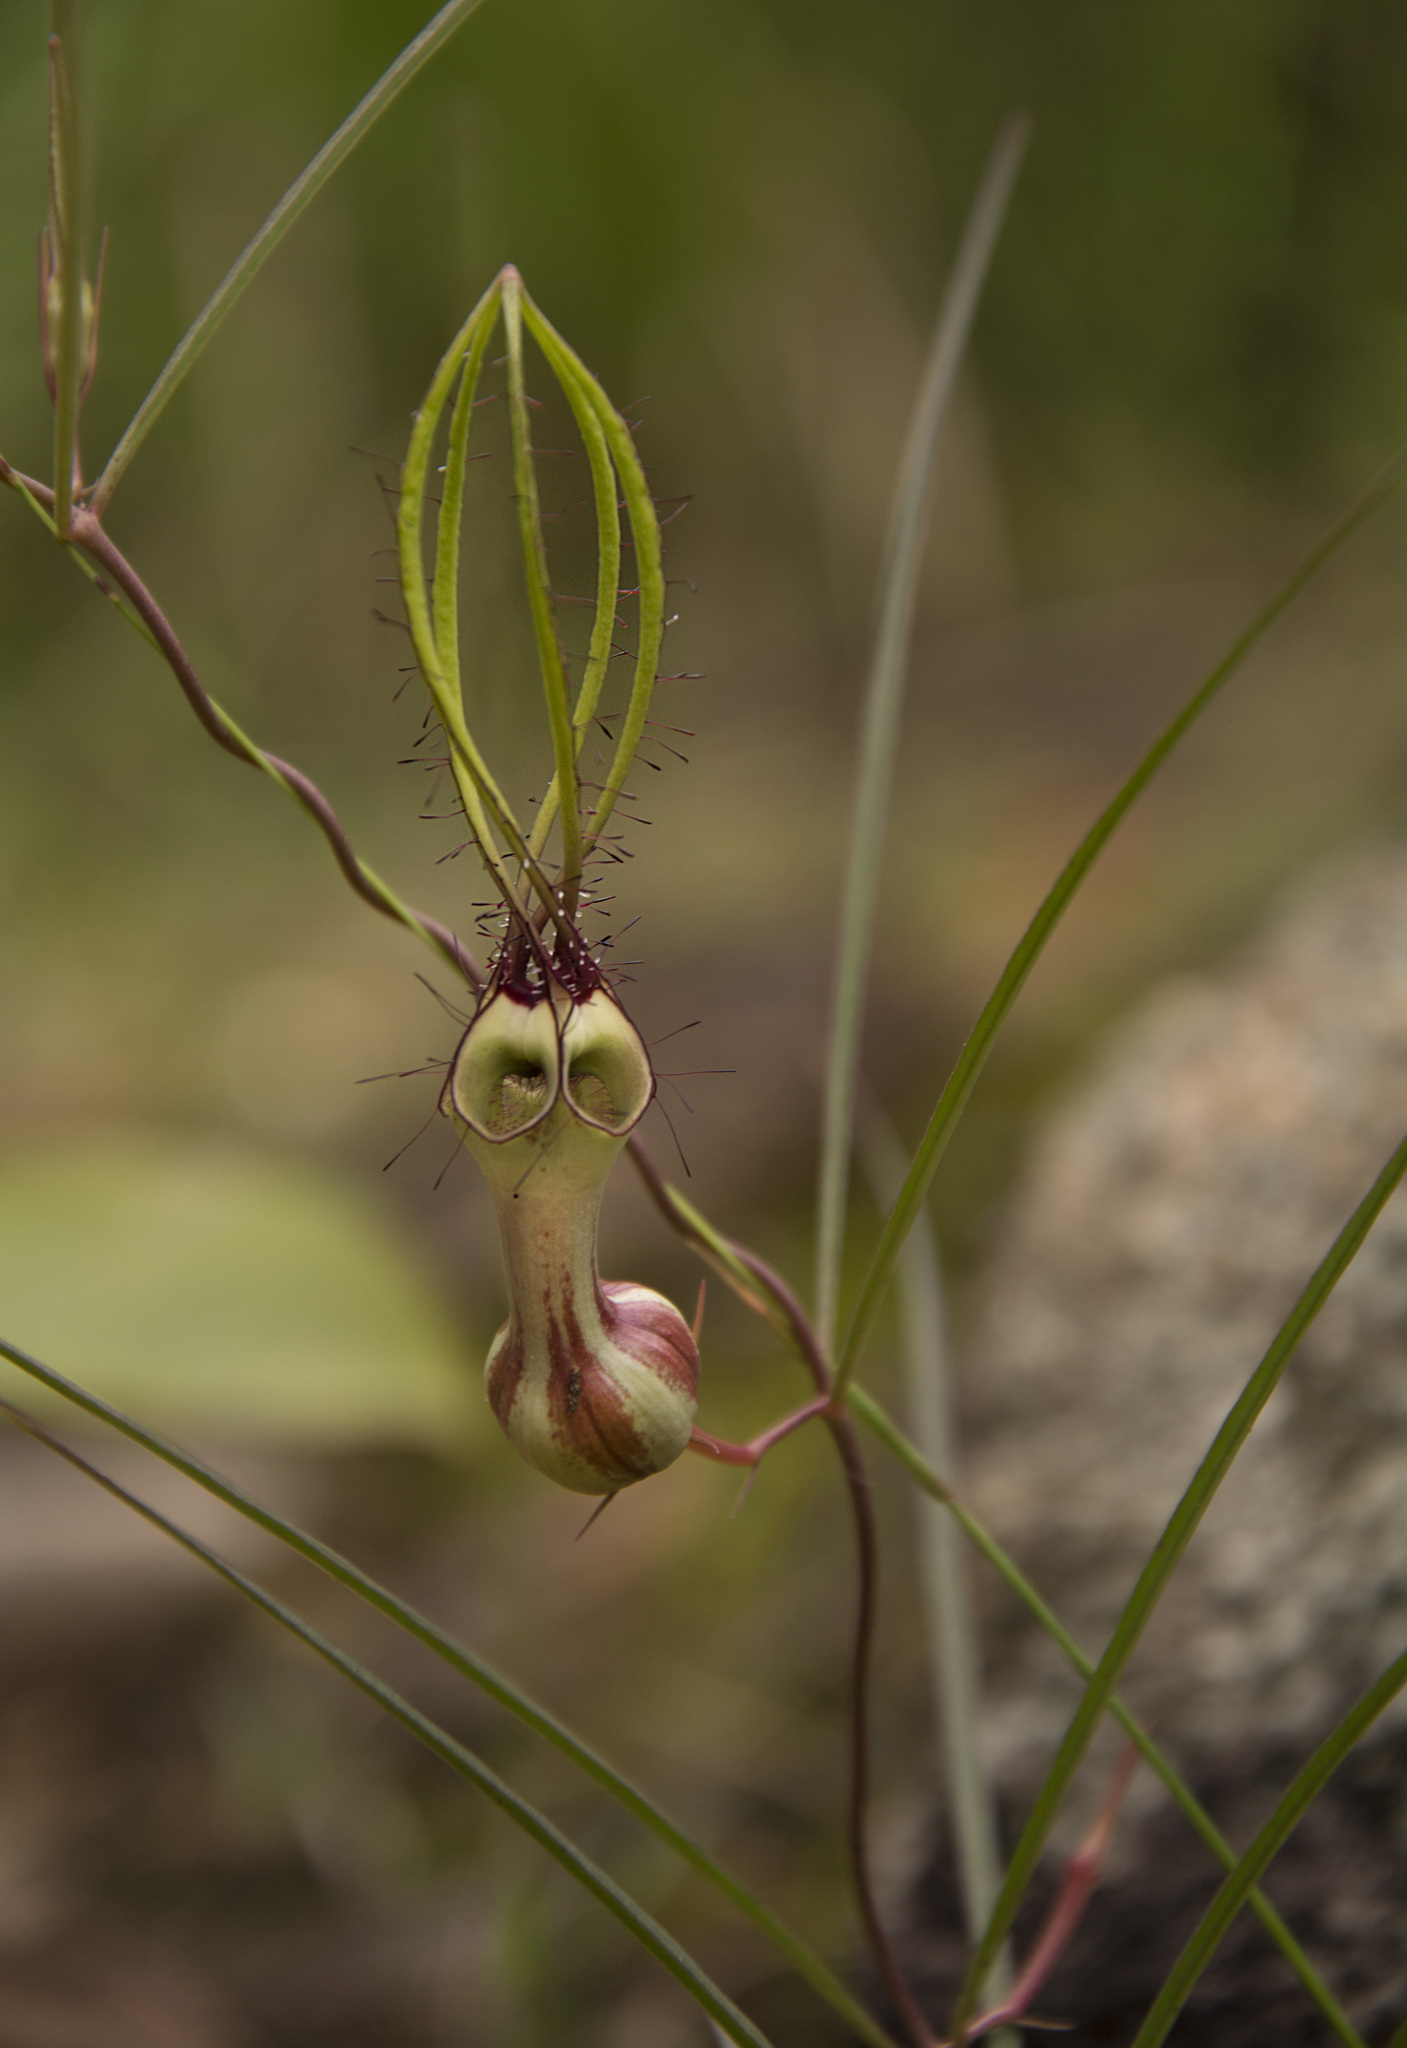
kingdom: Plantae
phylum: Tracheophyta
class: Magnoliopsida
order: Gentianales
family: Apocynaceae
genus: Ceropegia
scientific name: Ceropegia spiralis
